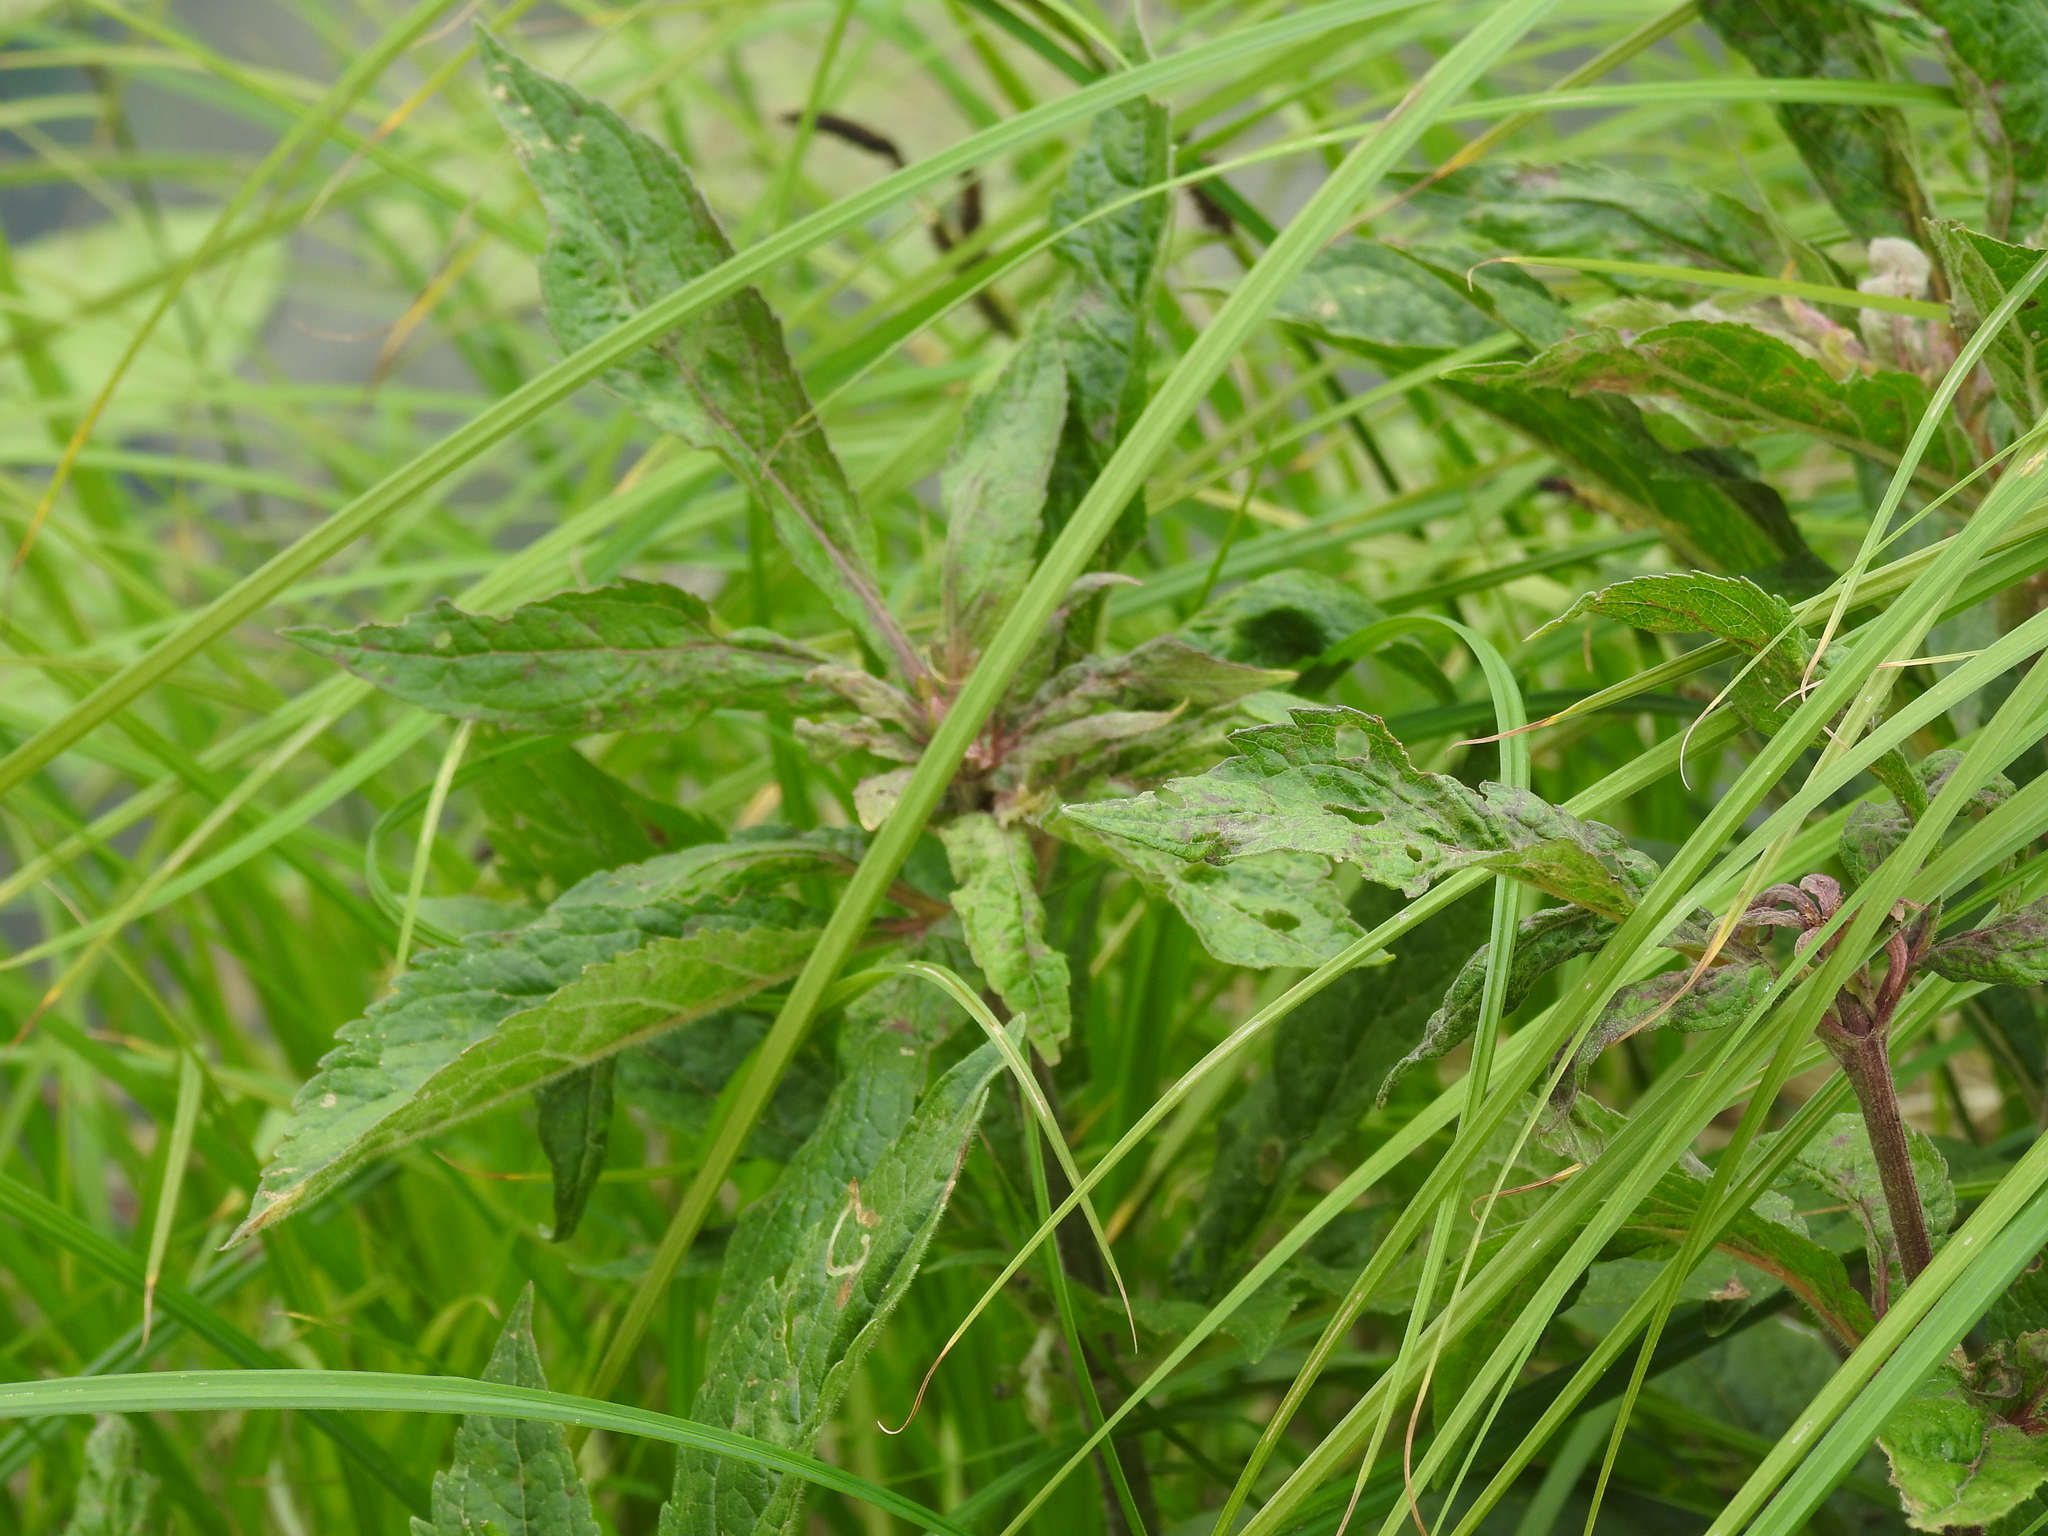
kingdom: Plantae
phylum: Tracheophyta
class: Magnoliopsida
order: Asterales
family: Asteraceae
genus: Eupatorium
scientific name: Eupatorium cannabinum
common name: Hemp-agrimony
